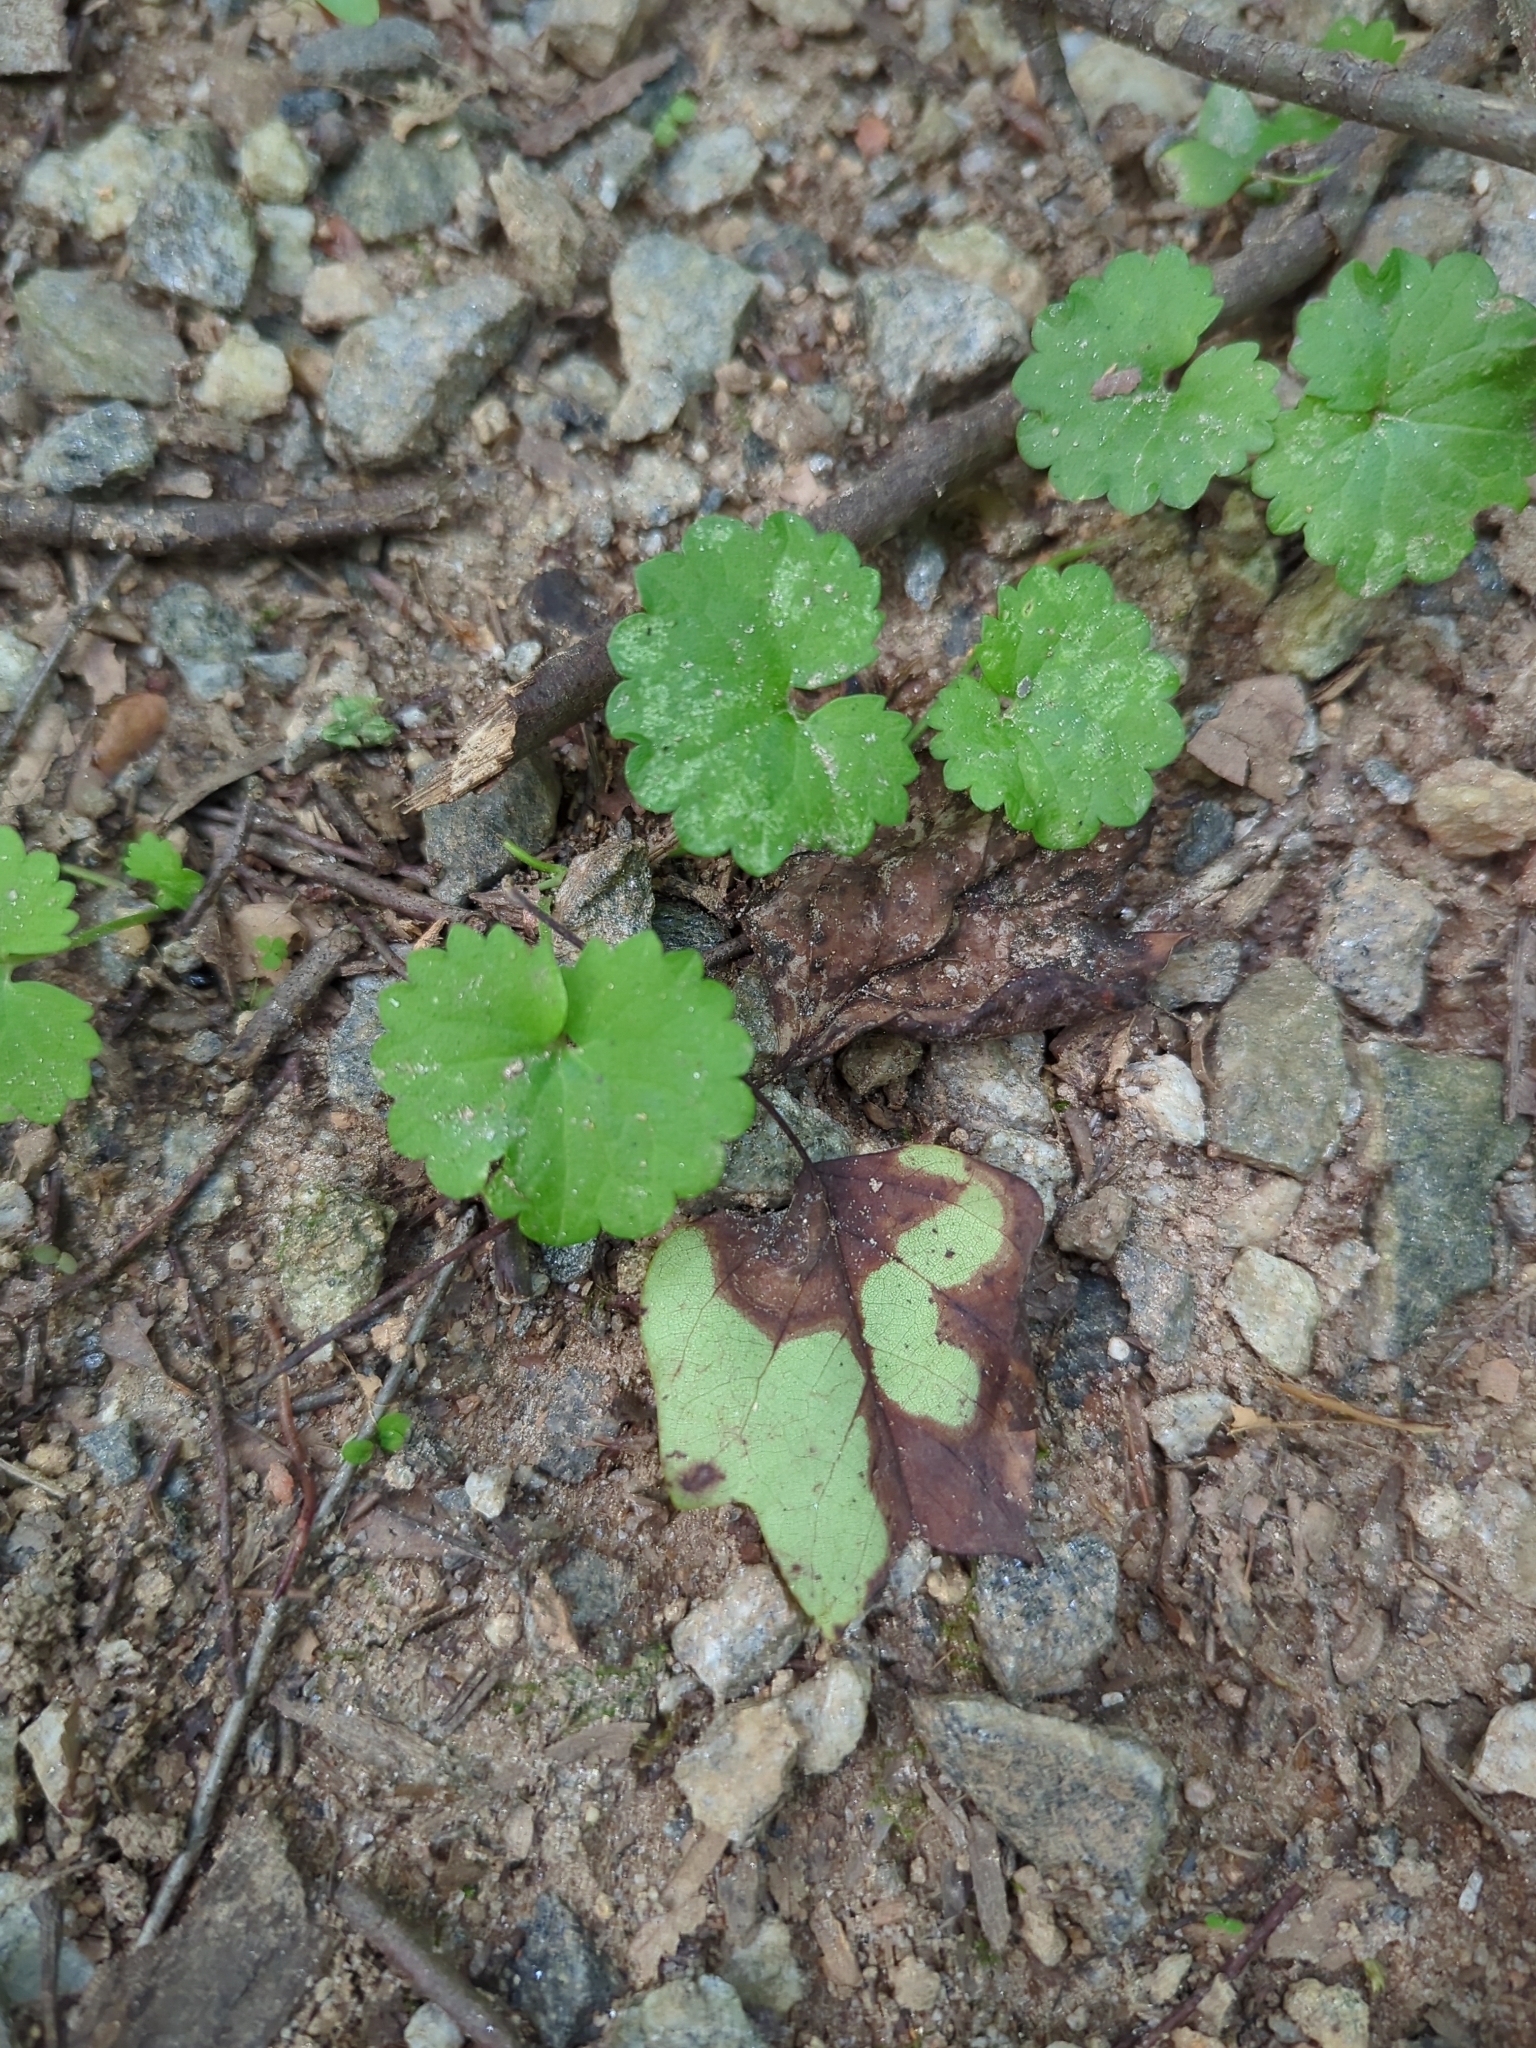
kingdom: Plantae
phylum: Tracheophyta
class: Magnoliopsida
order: Lamiales
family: Lamiaceae
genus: Glechoma
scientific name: Glechoma hederacea
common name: Ground ivy
